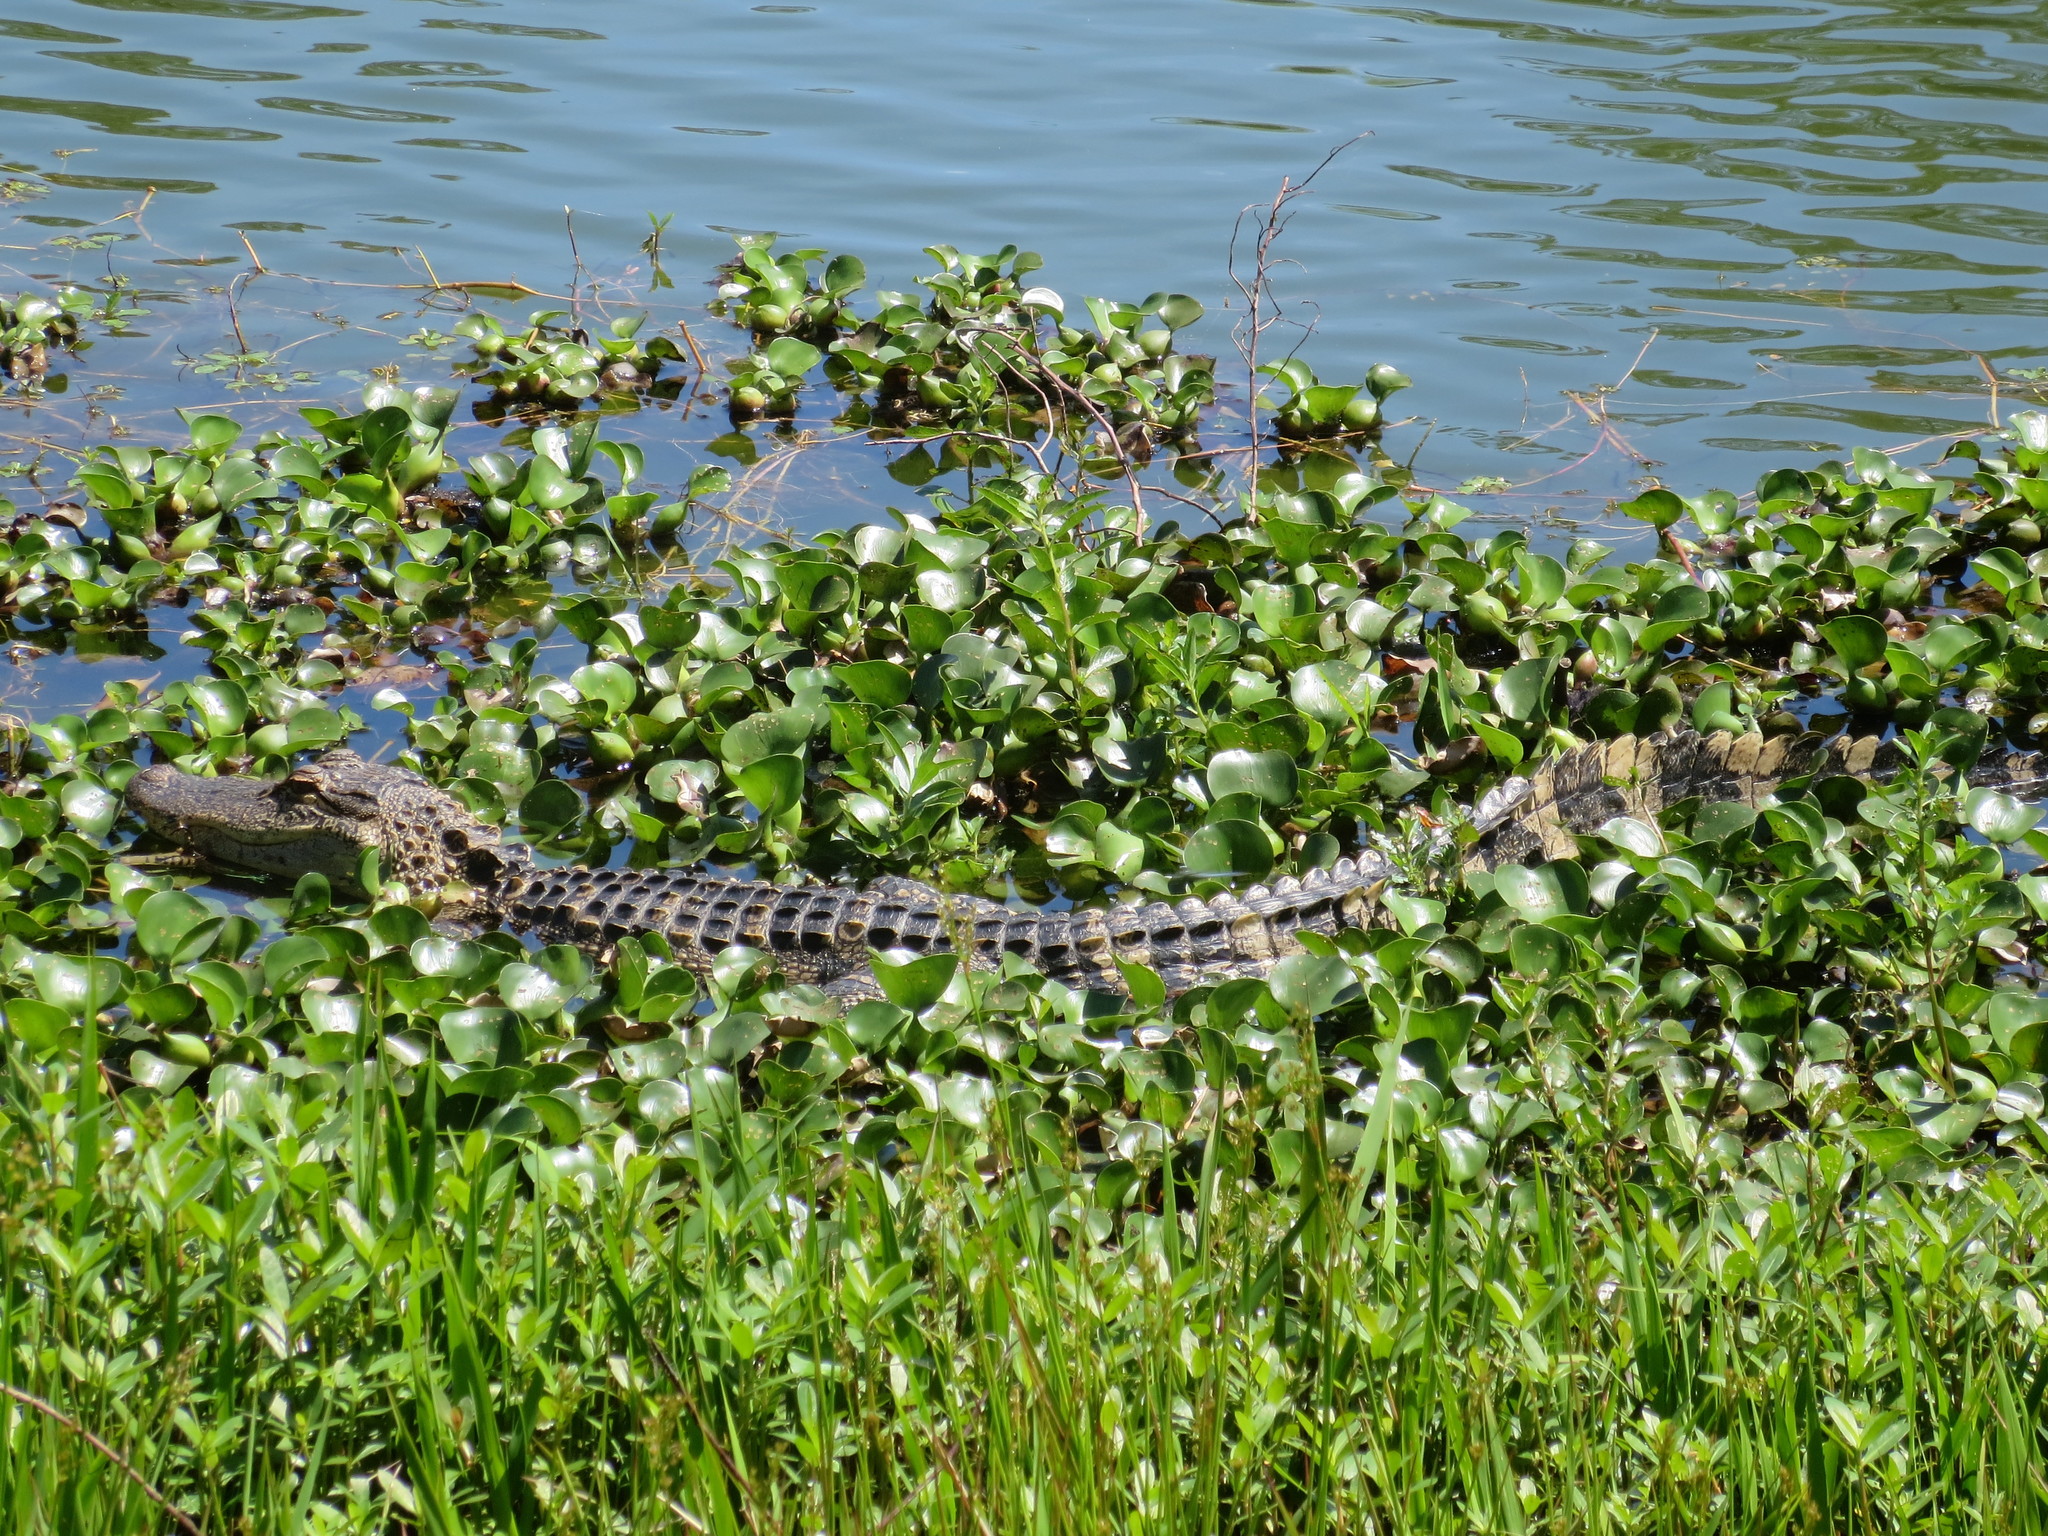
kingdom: Animalia
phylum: Chordata
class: Crocodylia
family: Alligatoridae
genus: Alligator
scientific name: Alligator mississippiensis
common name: American alligator
